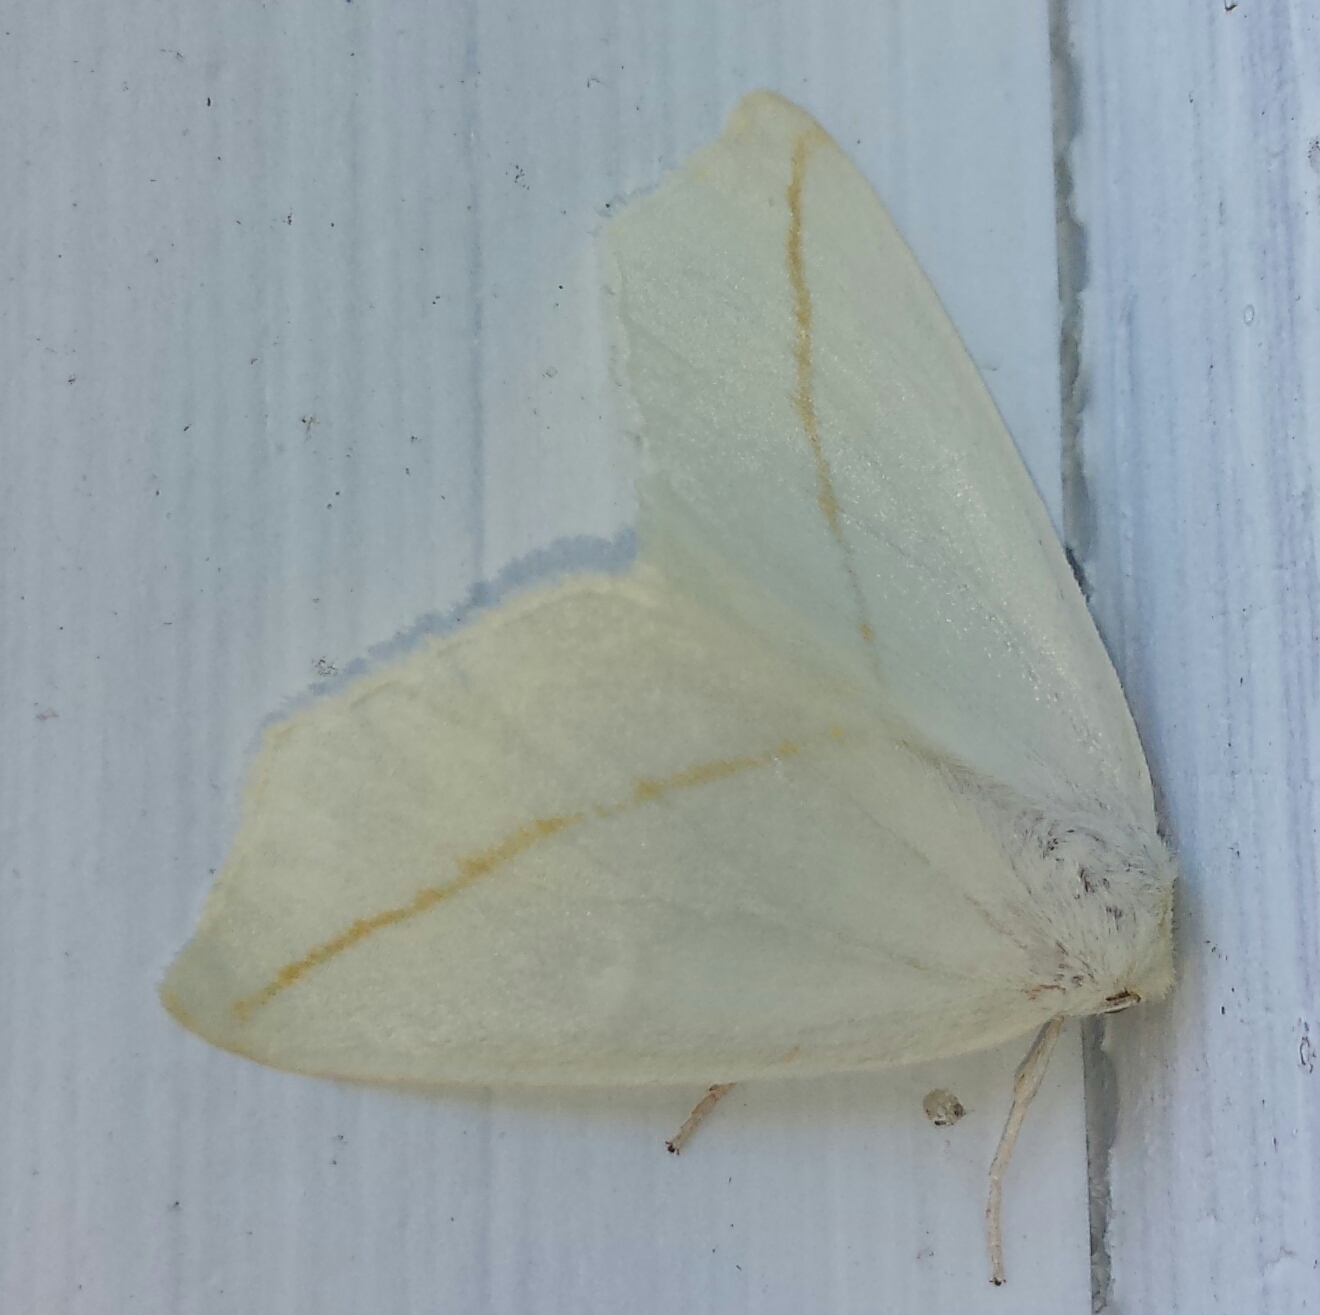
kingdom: Animalia
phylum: Arthropoda
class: Insecta
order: Lepidoptera
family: Geometridae
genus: Tetracis
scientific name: Tetracis cachexiata
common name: White slant-line
